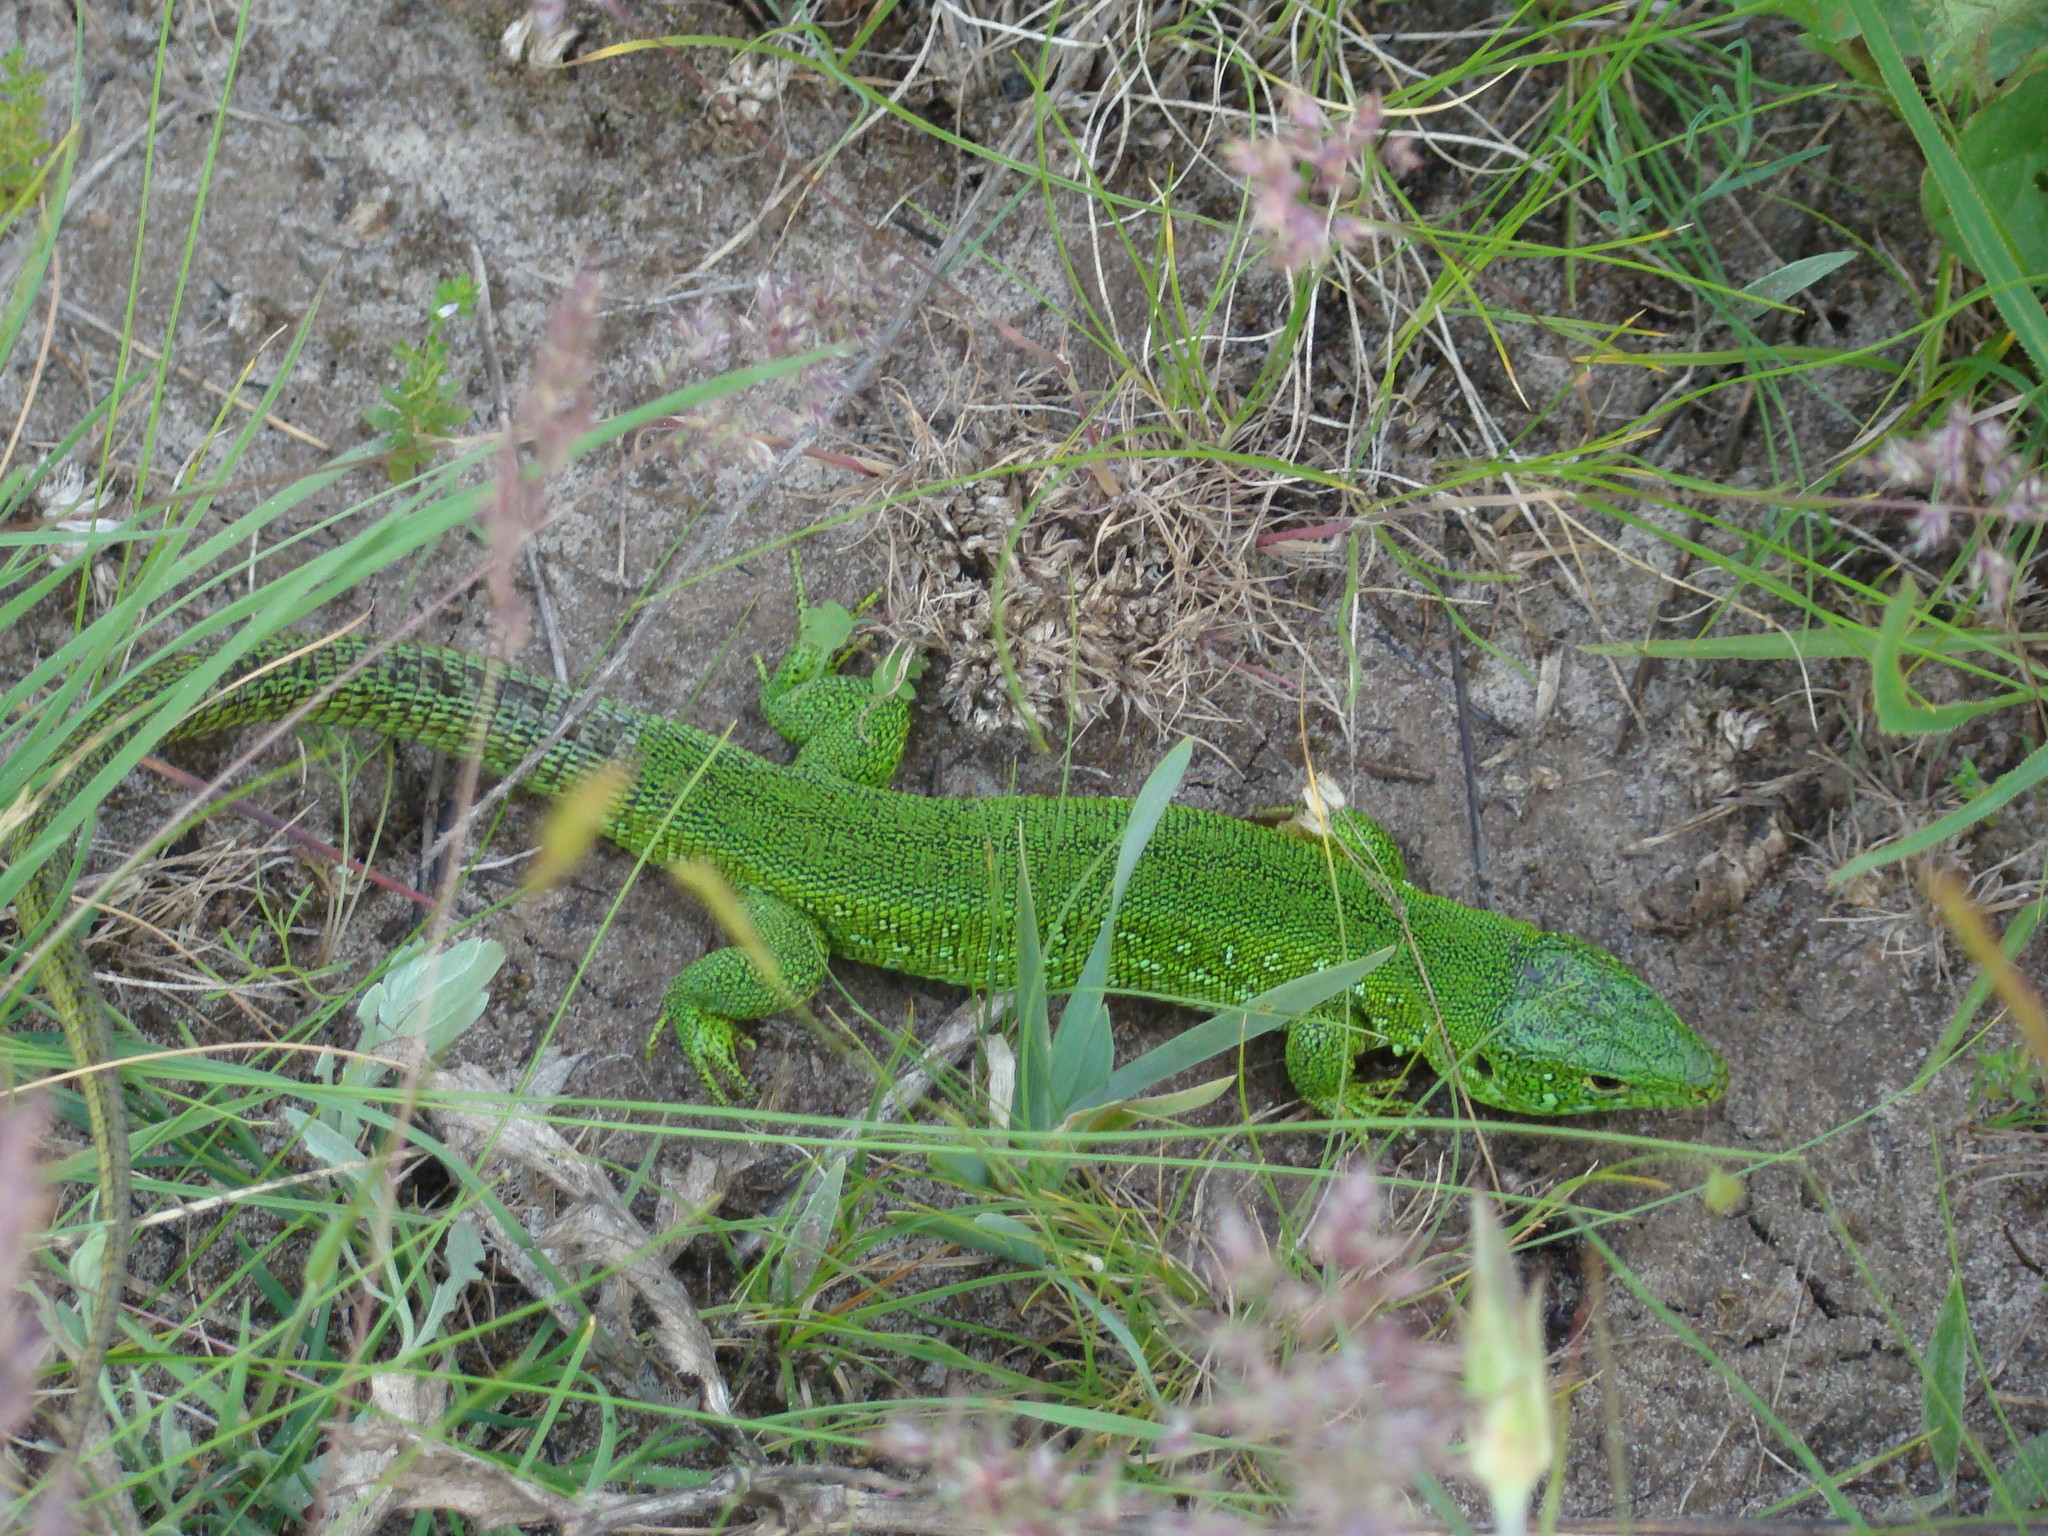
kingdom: Animalia
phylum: Chordata
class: Squamata
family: Lacertidae
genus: Lacerta
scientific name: Lacerta agilis
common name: Sand lizard
